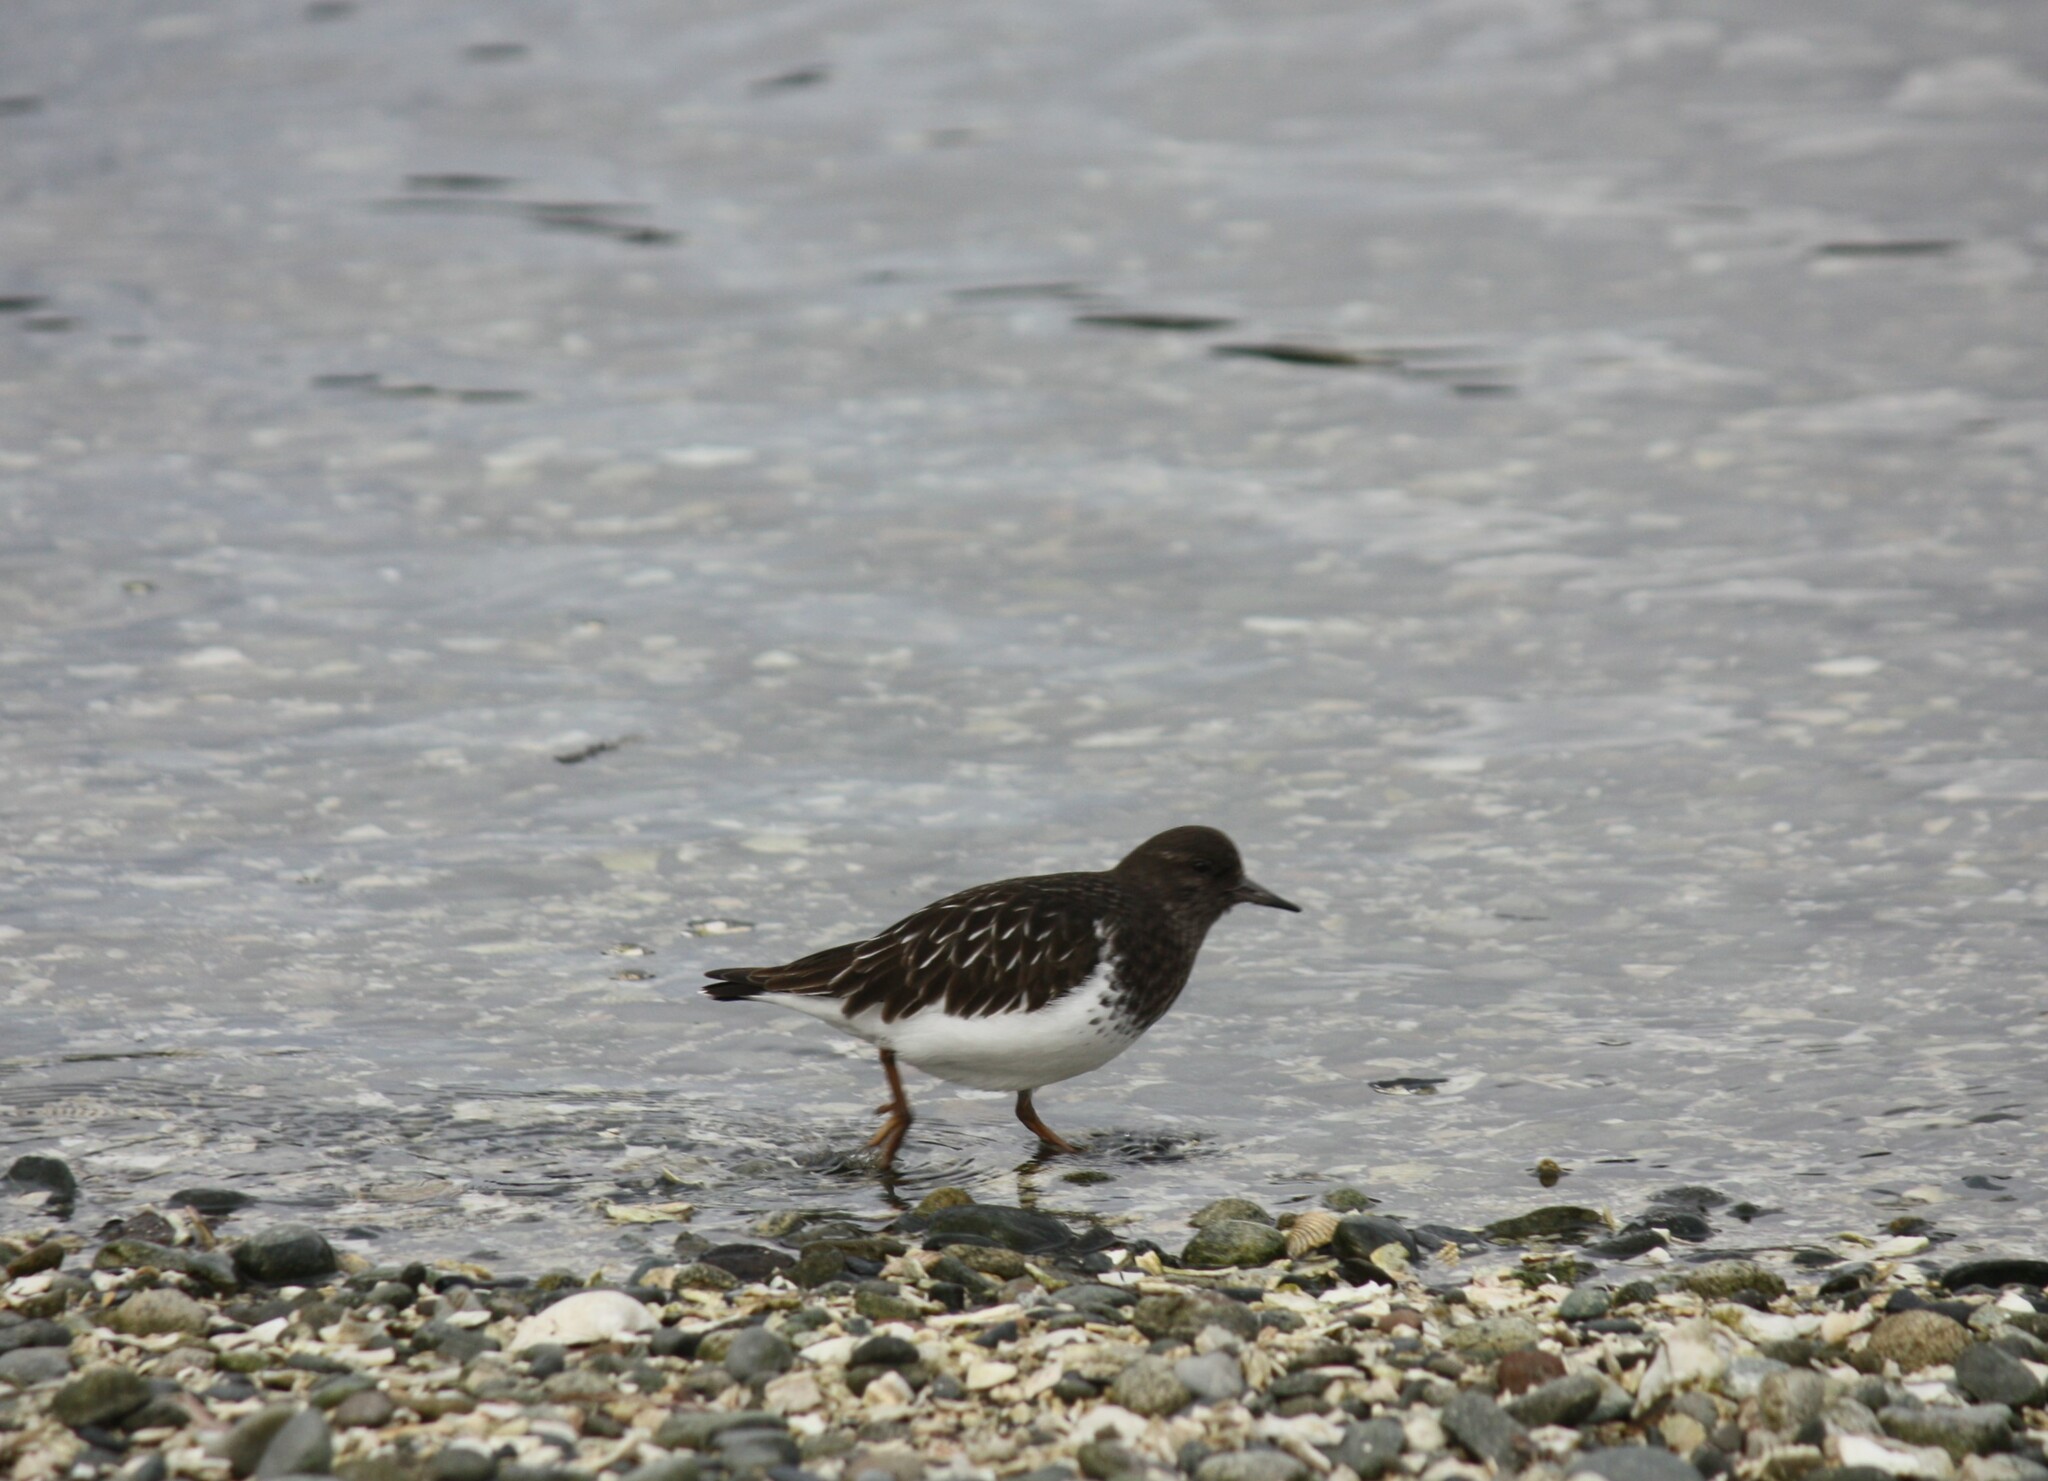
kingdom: Animalia
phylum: Chordata
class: Aves
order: Charadriiformes
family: Scolopacidae
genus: Arenaria
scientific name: Arenaria melanocephala
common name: Black turnstone
